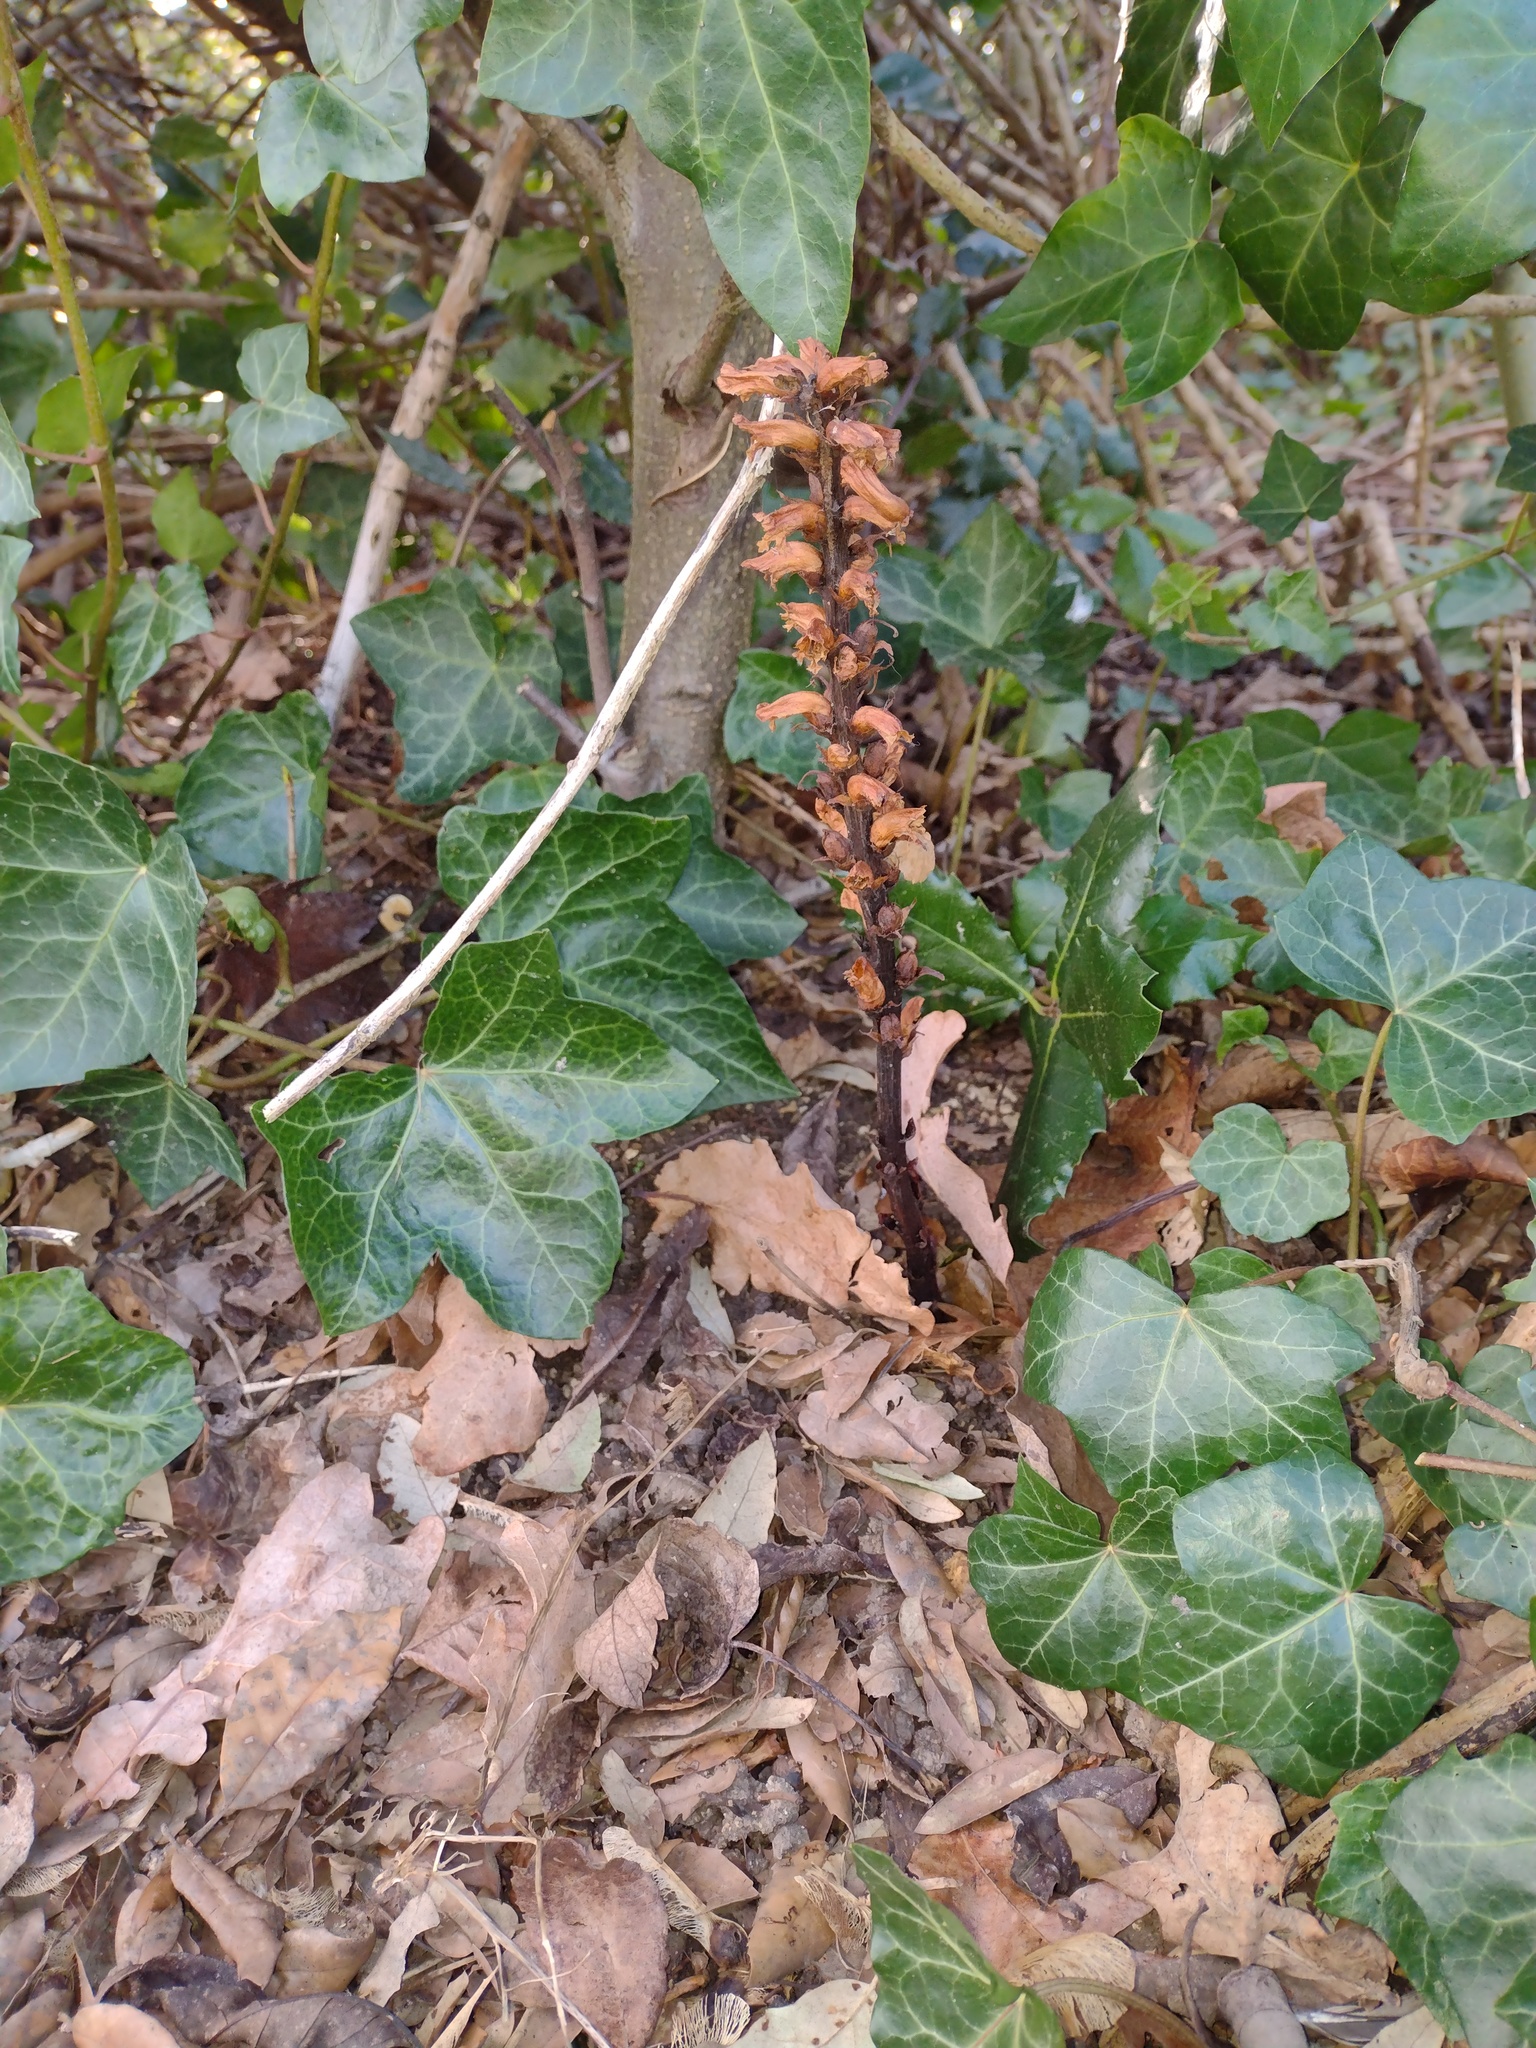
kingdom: Plantae
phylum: Tracheophyta
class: Magnoliopsida
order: Lamiales
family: Orobanchaceae
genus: Orobanche
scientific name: Orobanche hederae
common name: Ivy broomrape
